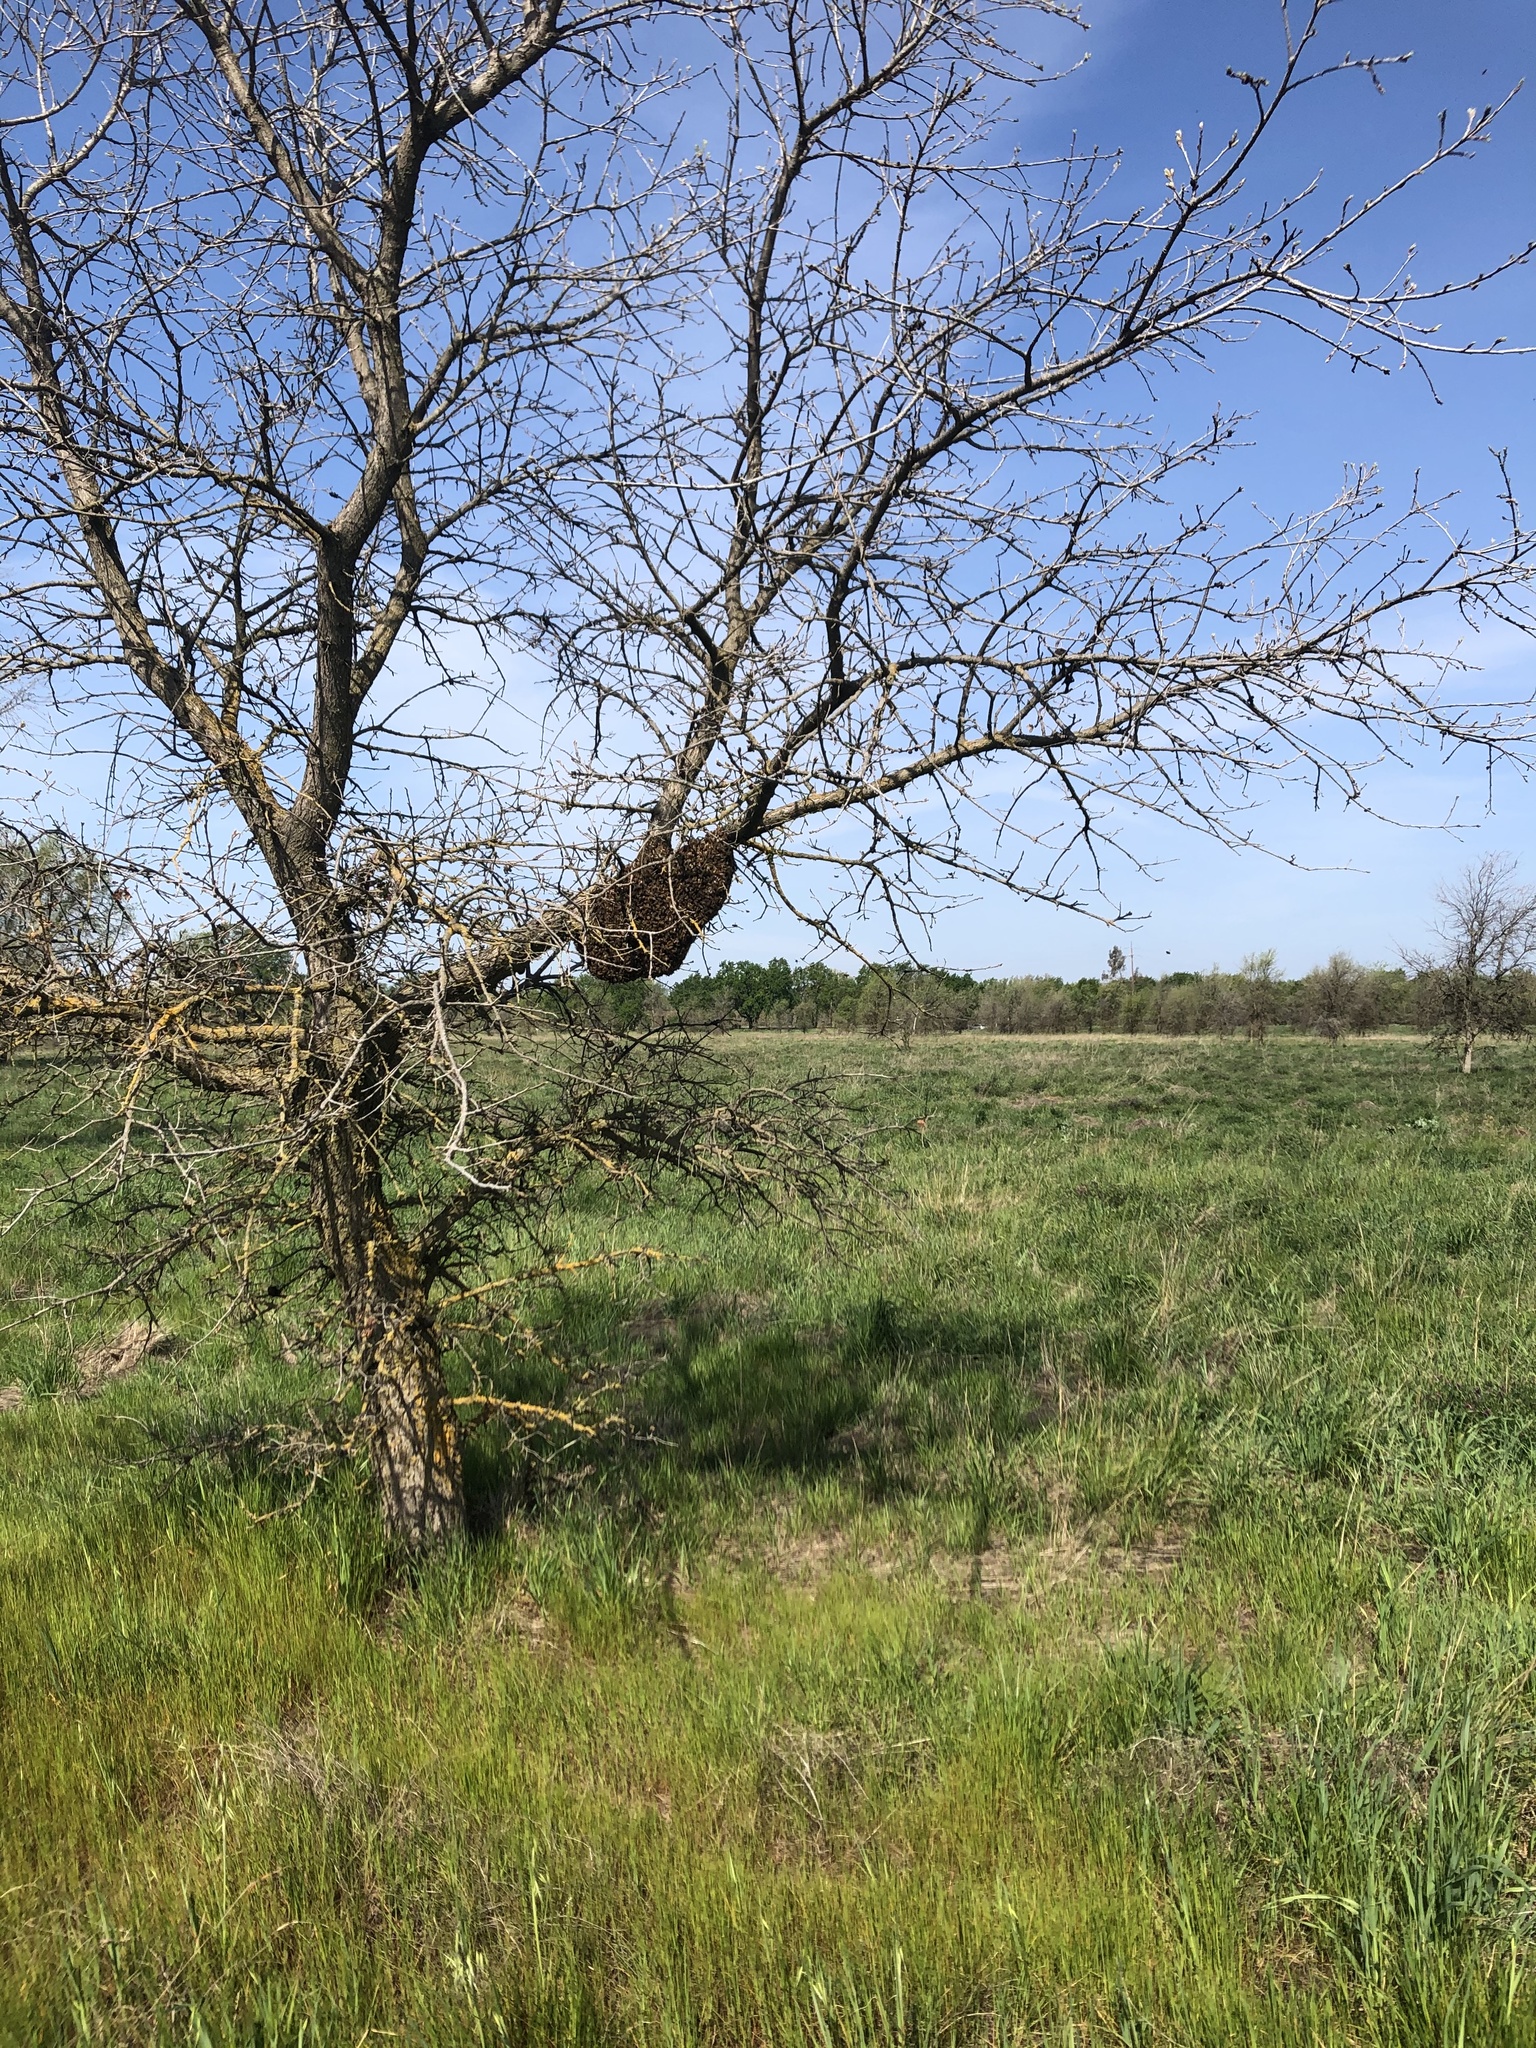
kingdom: Animalia
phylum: Arthropoda
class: Insecta
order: Hymenoptera
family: Apidae
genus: Apis
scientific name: Apis mellifera
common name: Honey bee
